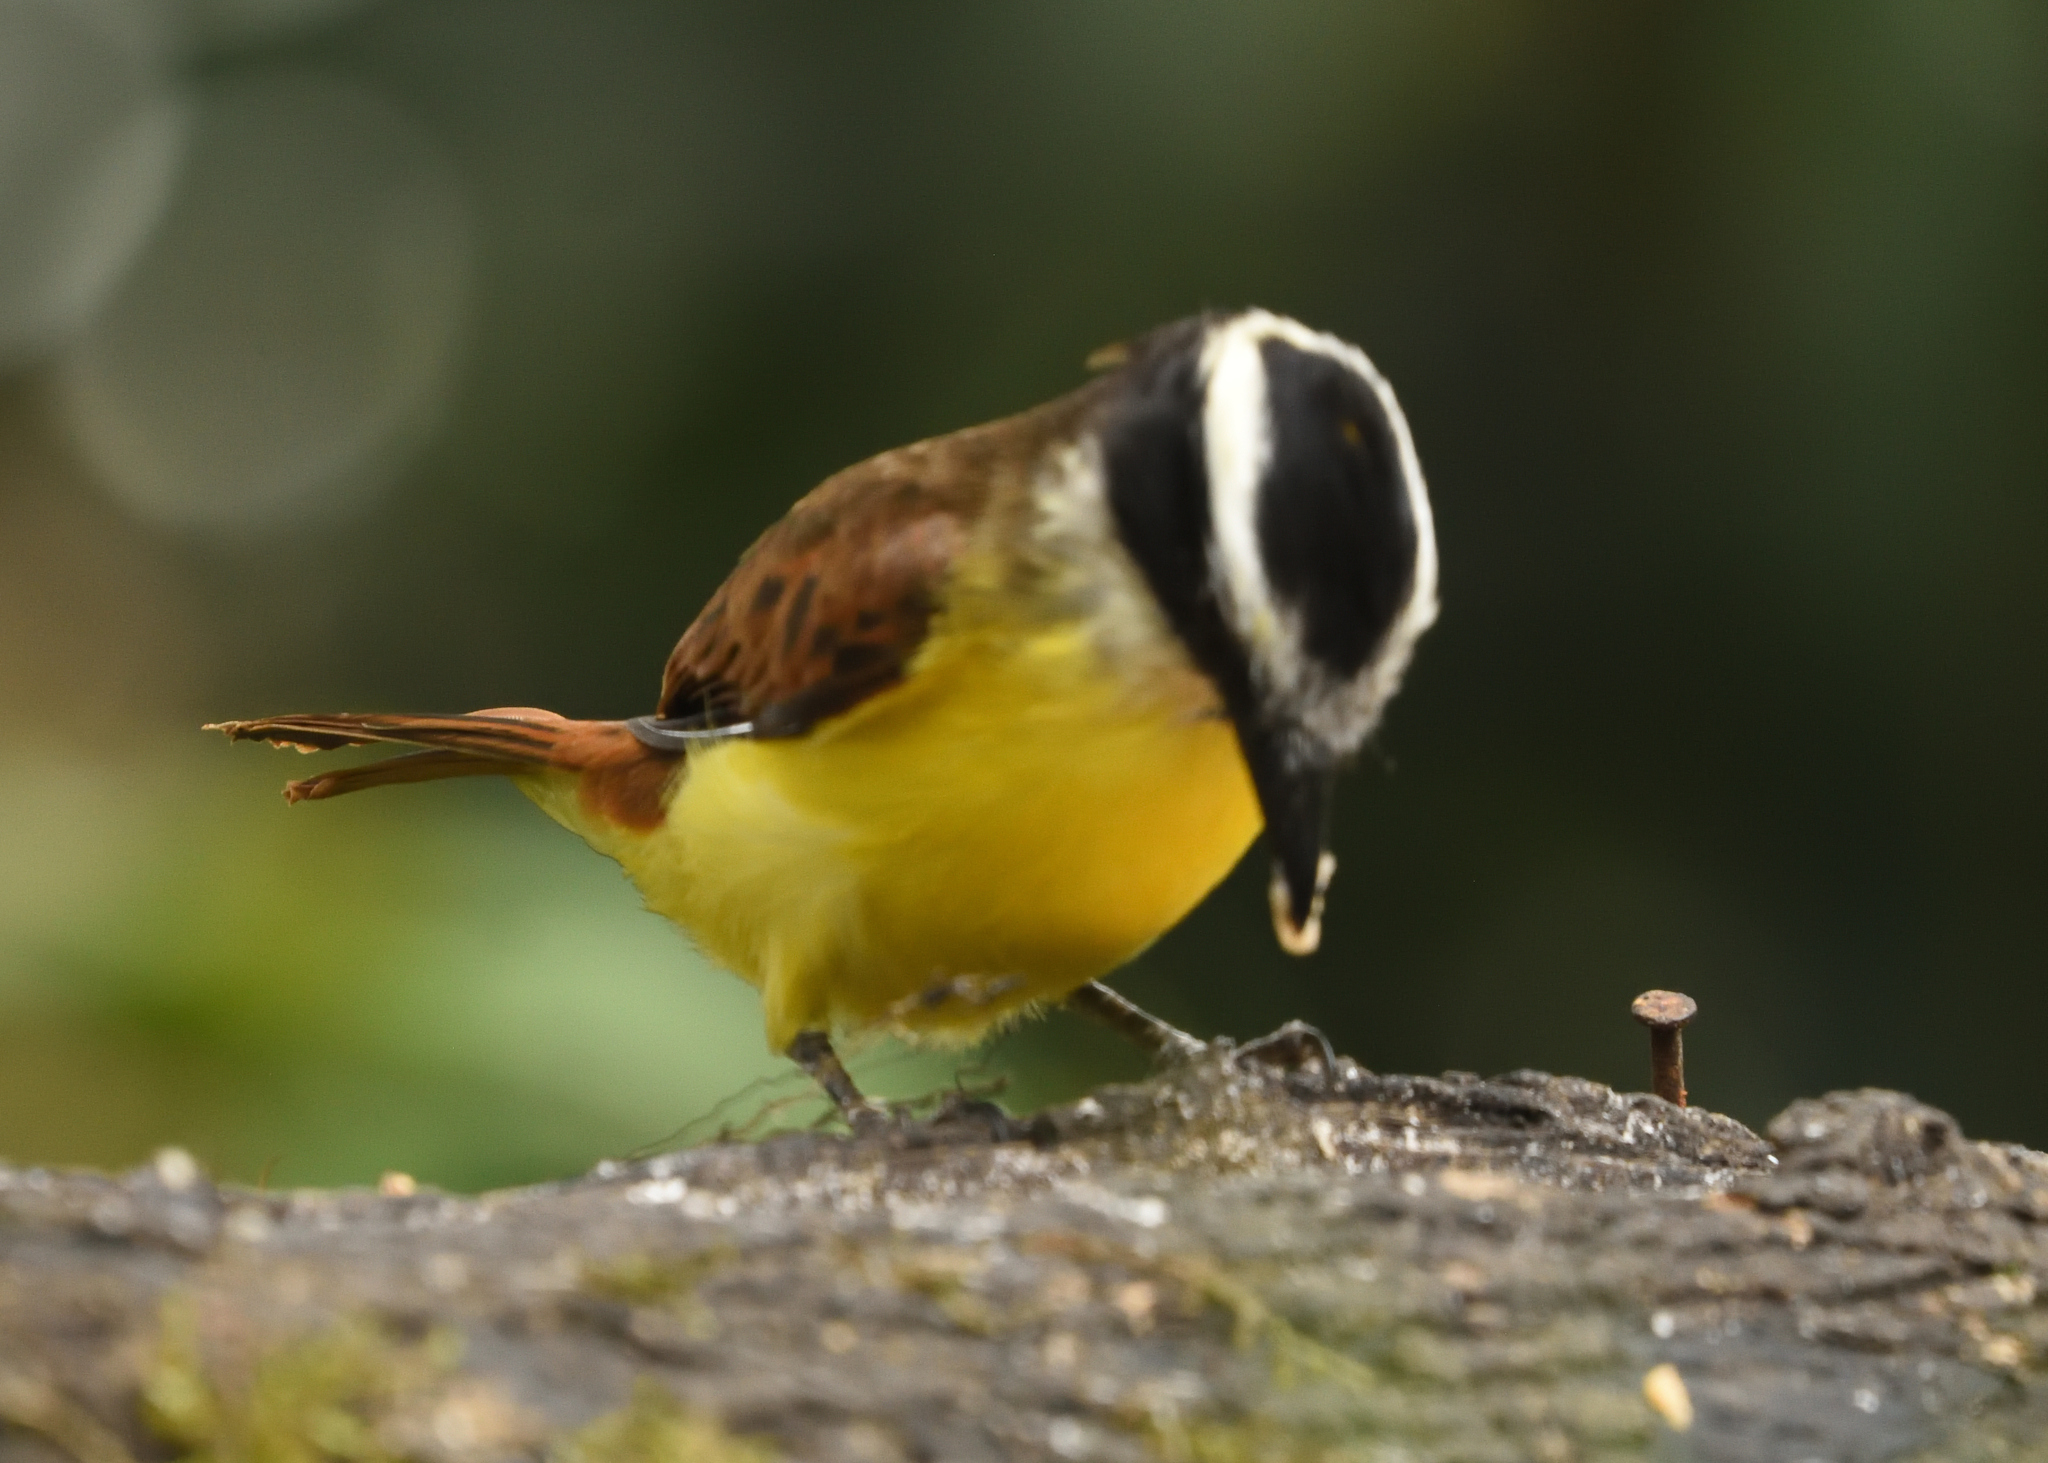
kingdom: Animalia
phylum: Chordata
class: Aves
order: Passeriformes
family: Tyrannidae
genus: Pitangus
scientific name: Pitangus sulphuratus
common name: Great kiskadee
